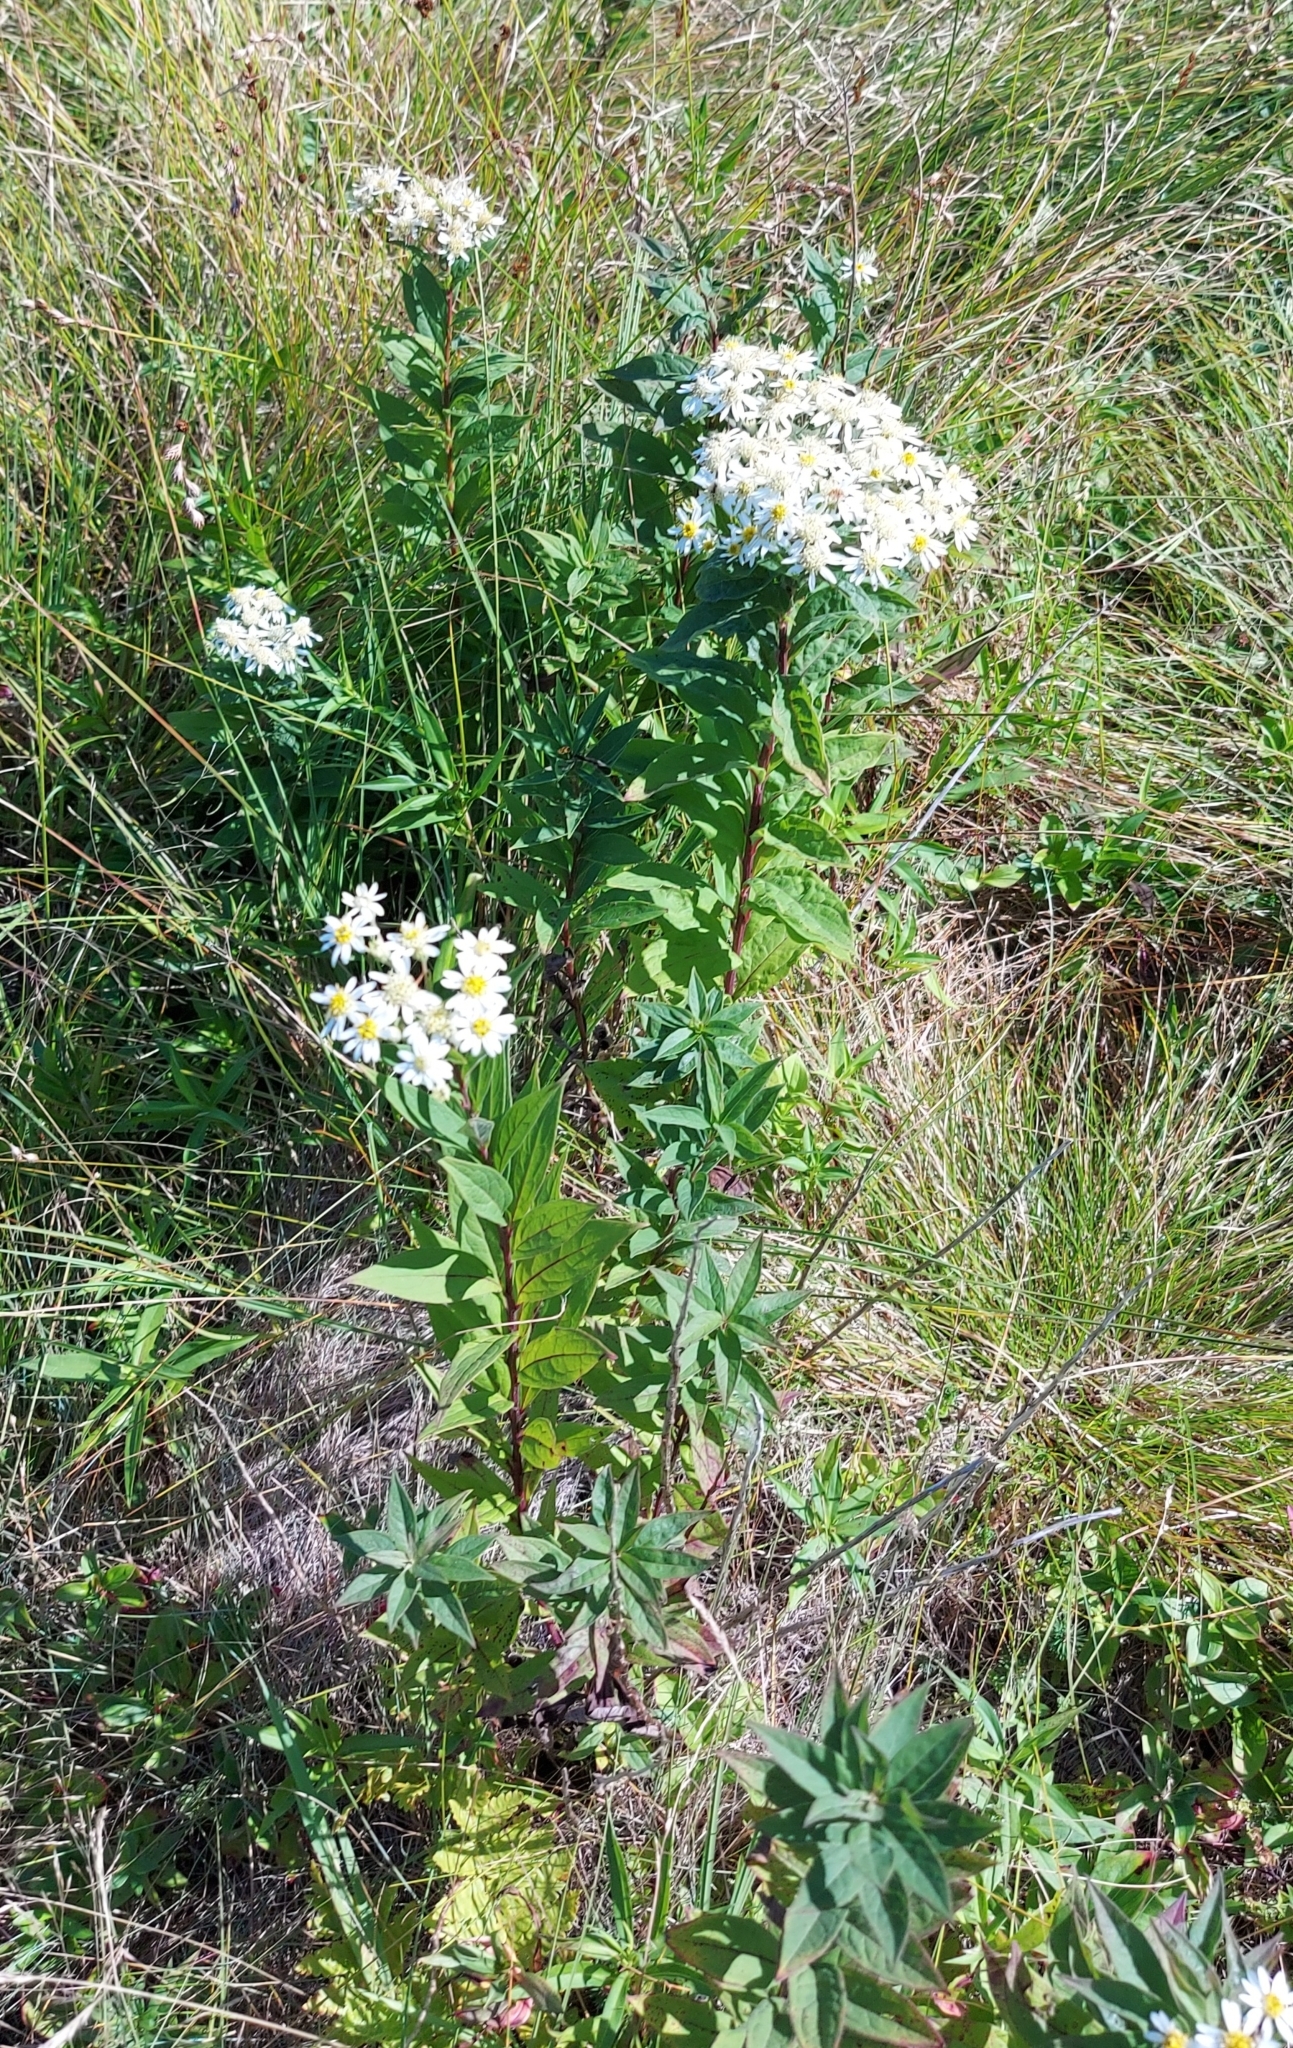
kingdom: Plantae
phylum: Tracheophyta
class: Magnoliopsida
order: Asterales
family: Asteraceae
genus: Doellingeria
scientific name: Doellingeria umbellata
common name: Flat-top white aster
